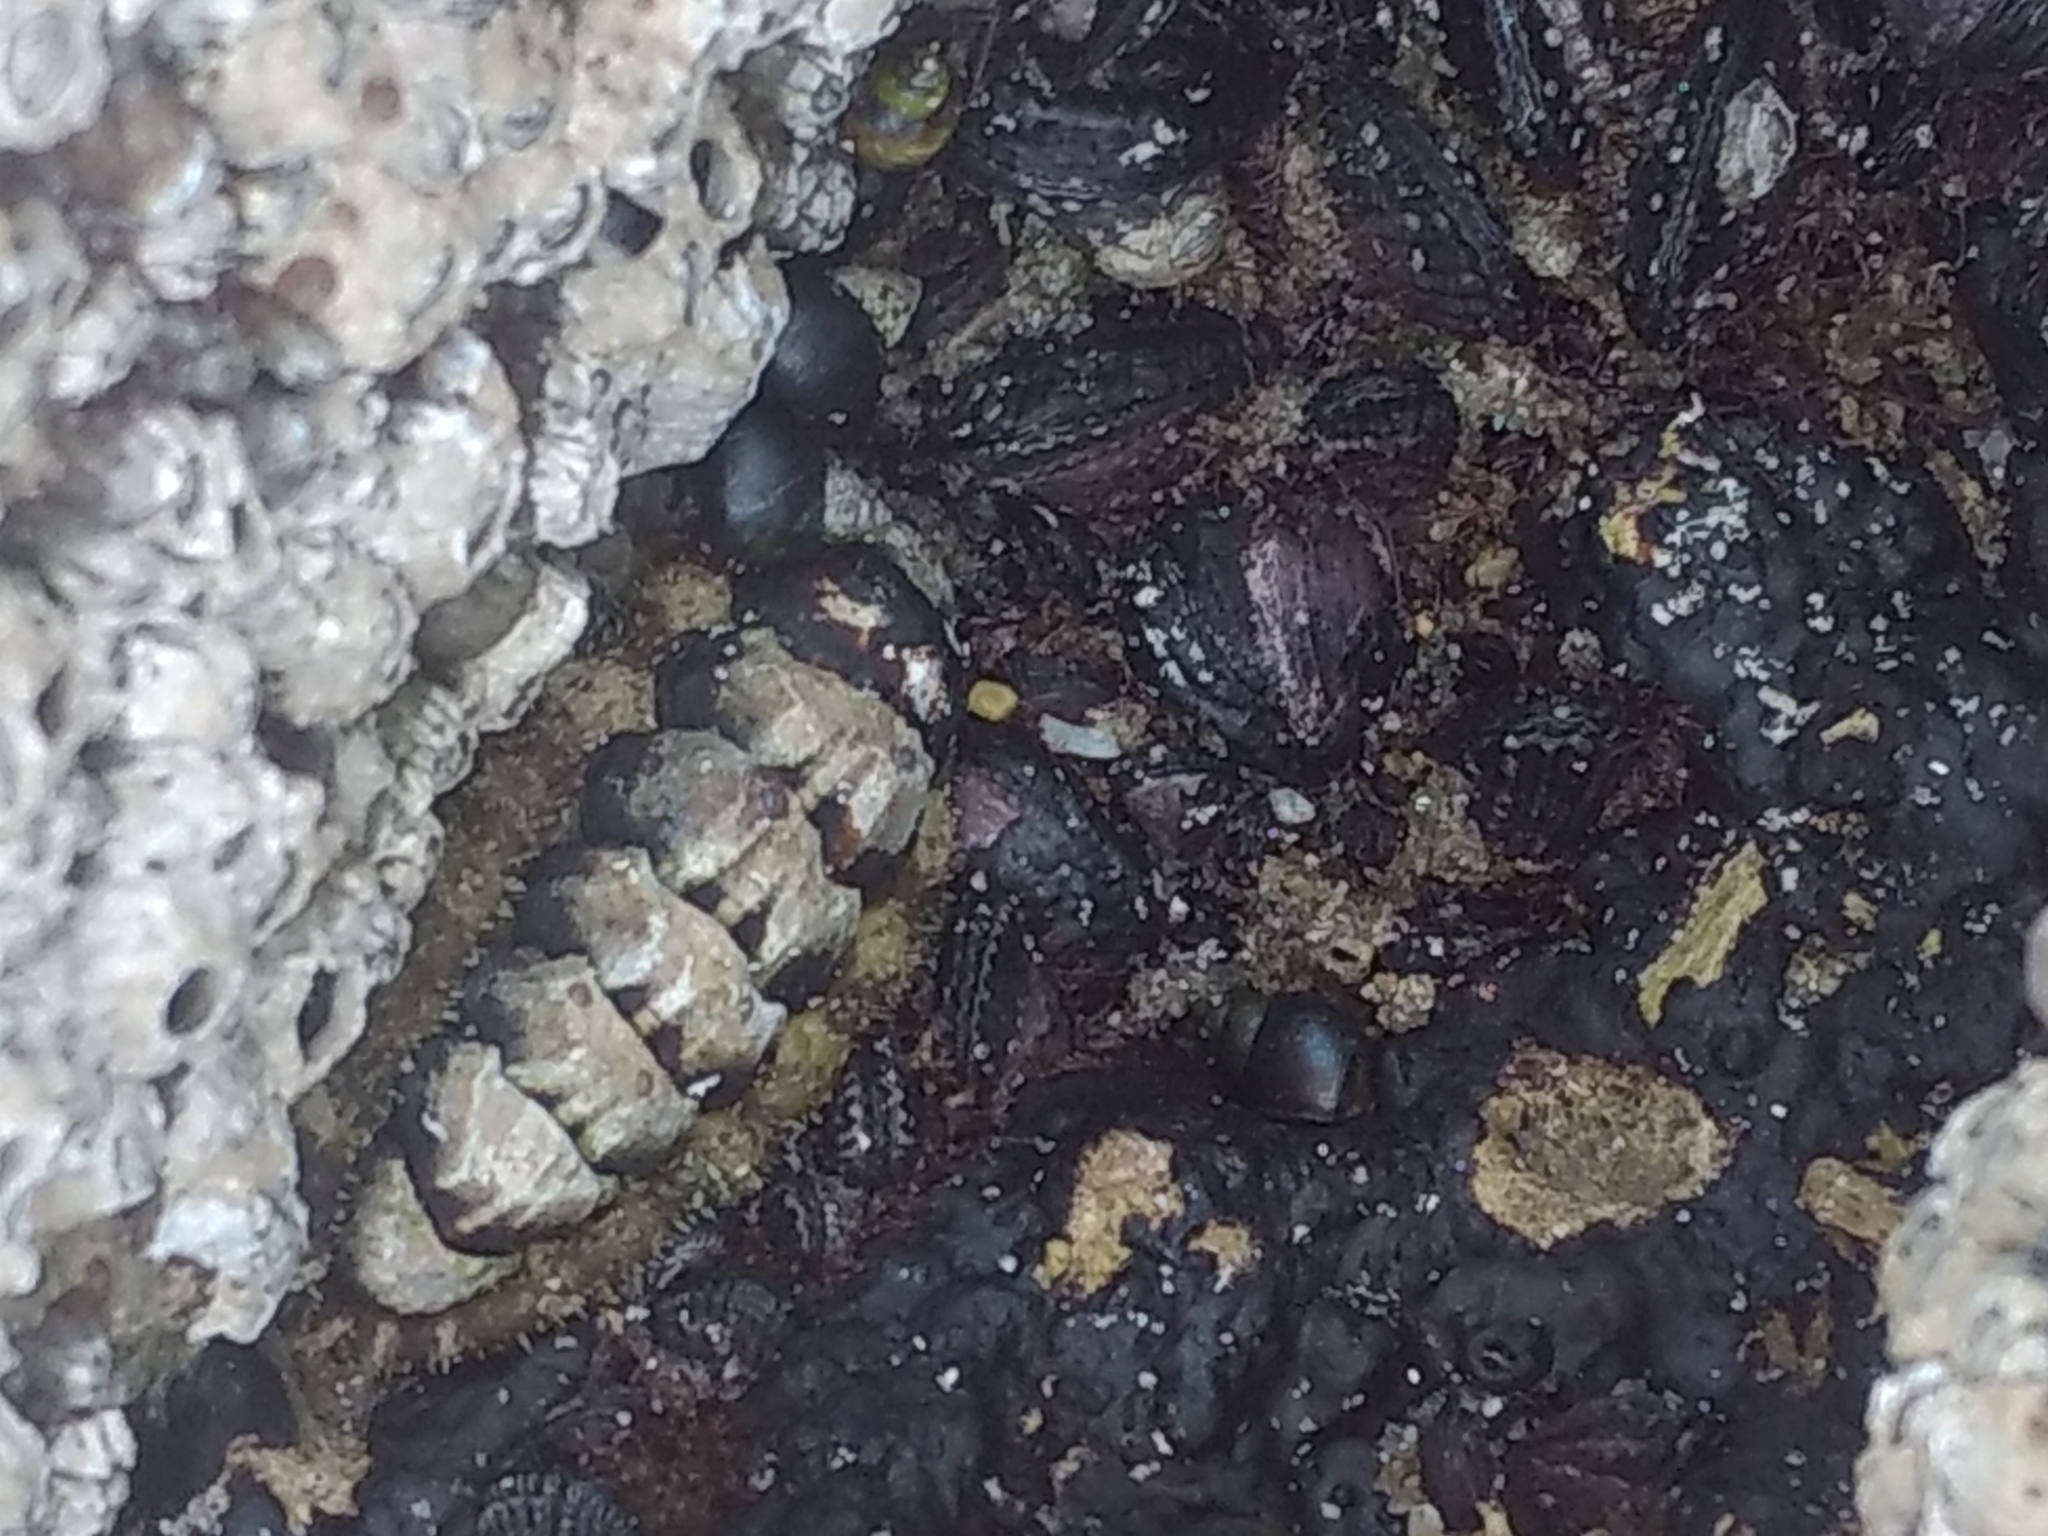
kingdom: Animalia
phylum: Mollusca
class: Polyplacophora
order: Chitonida
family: Tonicellidae
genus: Nuttallina
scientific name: Nuttallina californica
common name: California nuttall chiton
